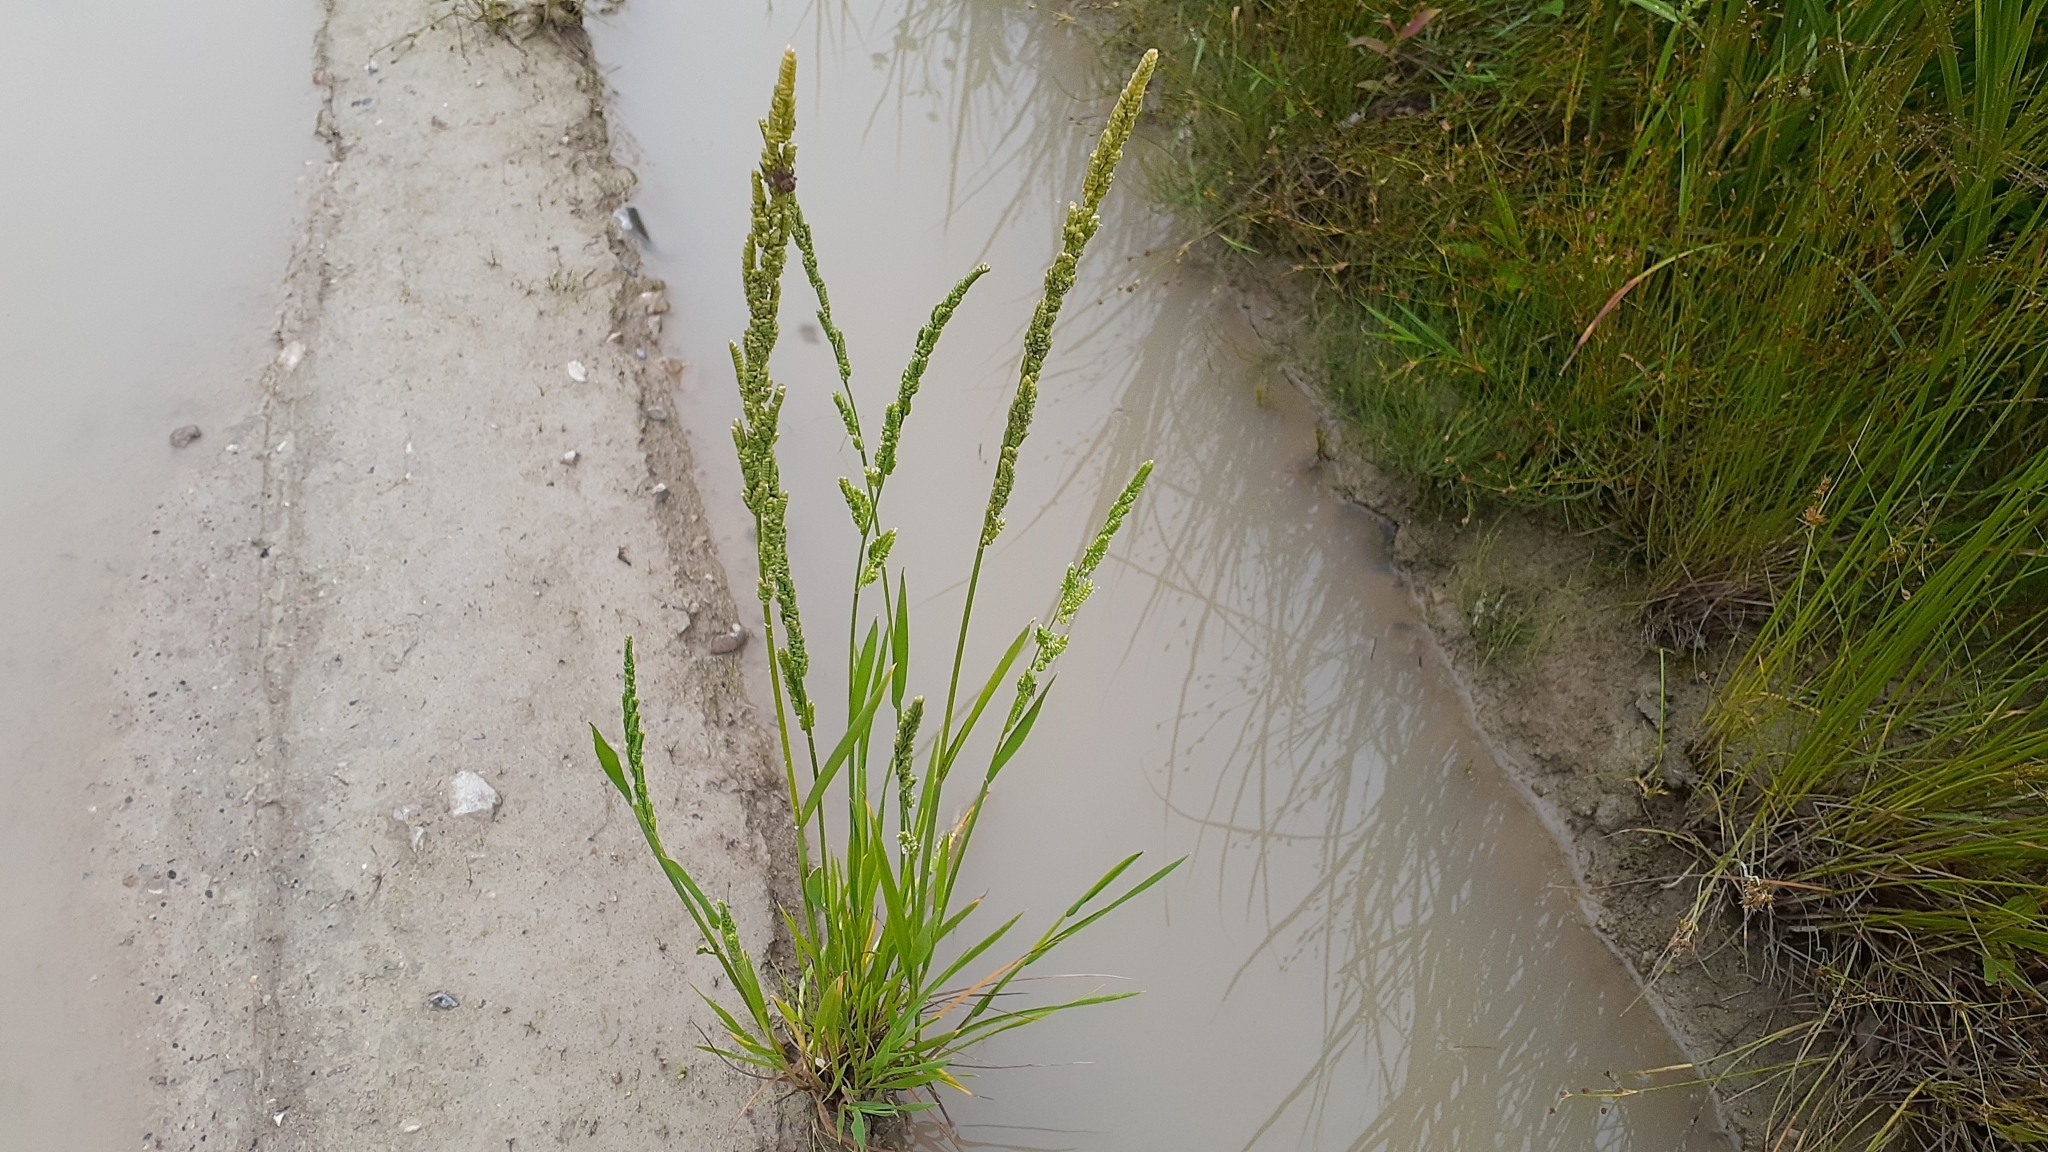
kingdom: Plantae
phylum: Tracheophyta
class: Liliopsida
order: Poales
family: Poaceae
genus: Beckmannia
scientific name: Beckmannia syzigachne
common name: American slough-grass
